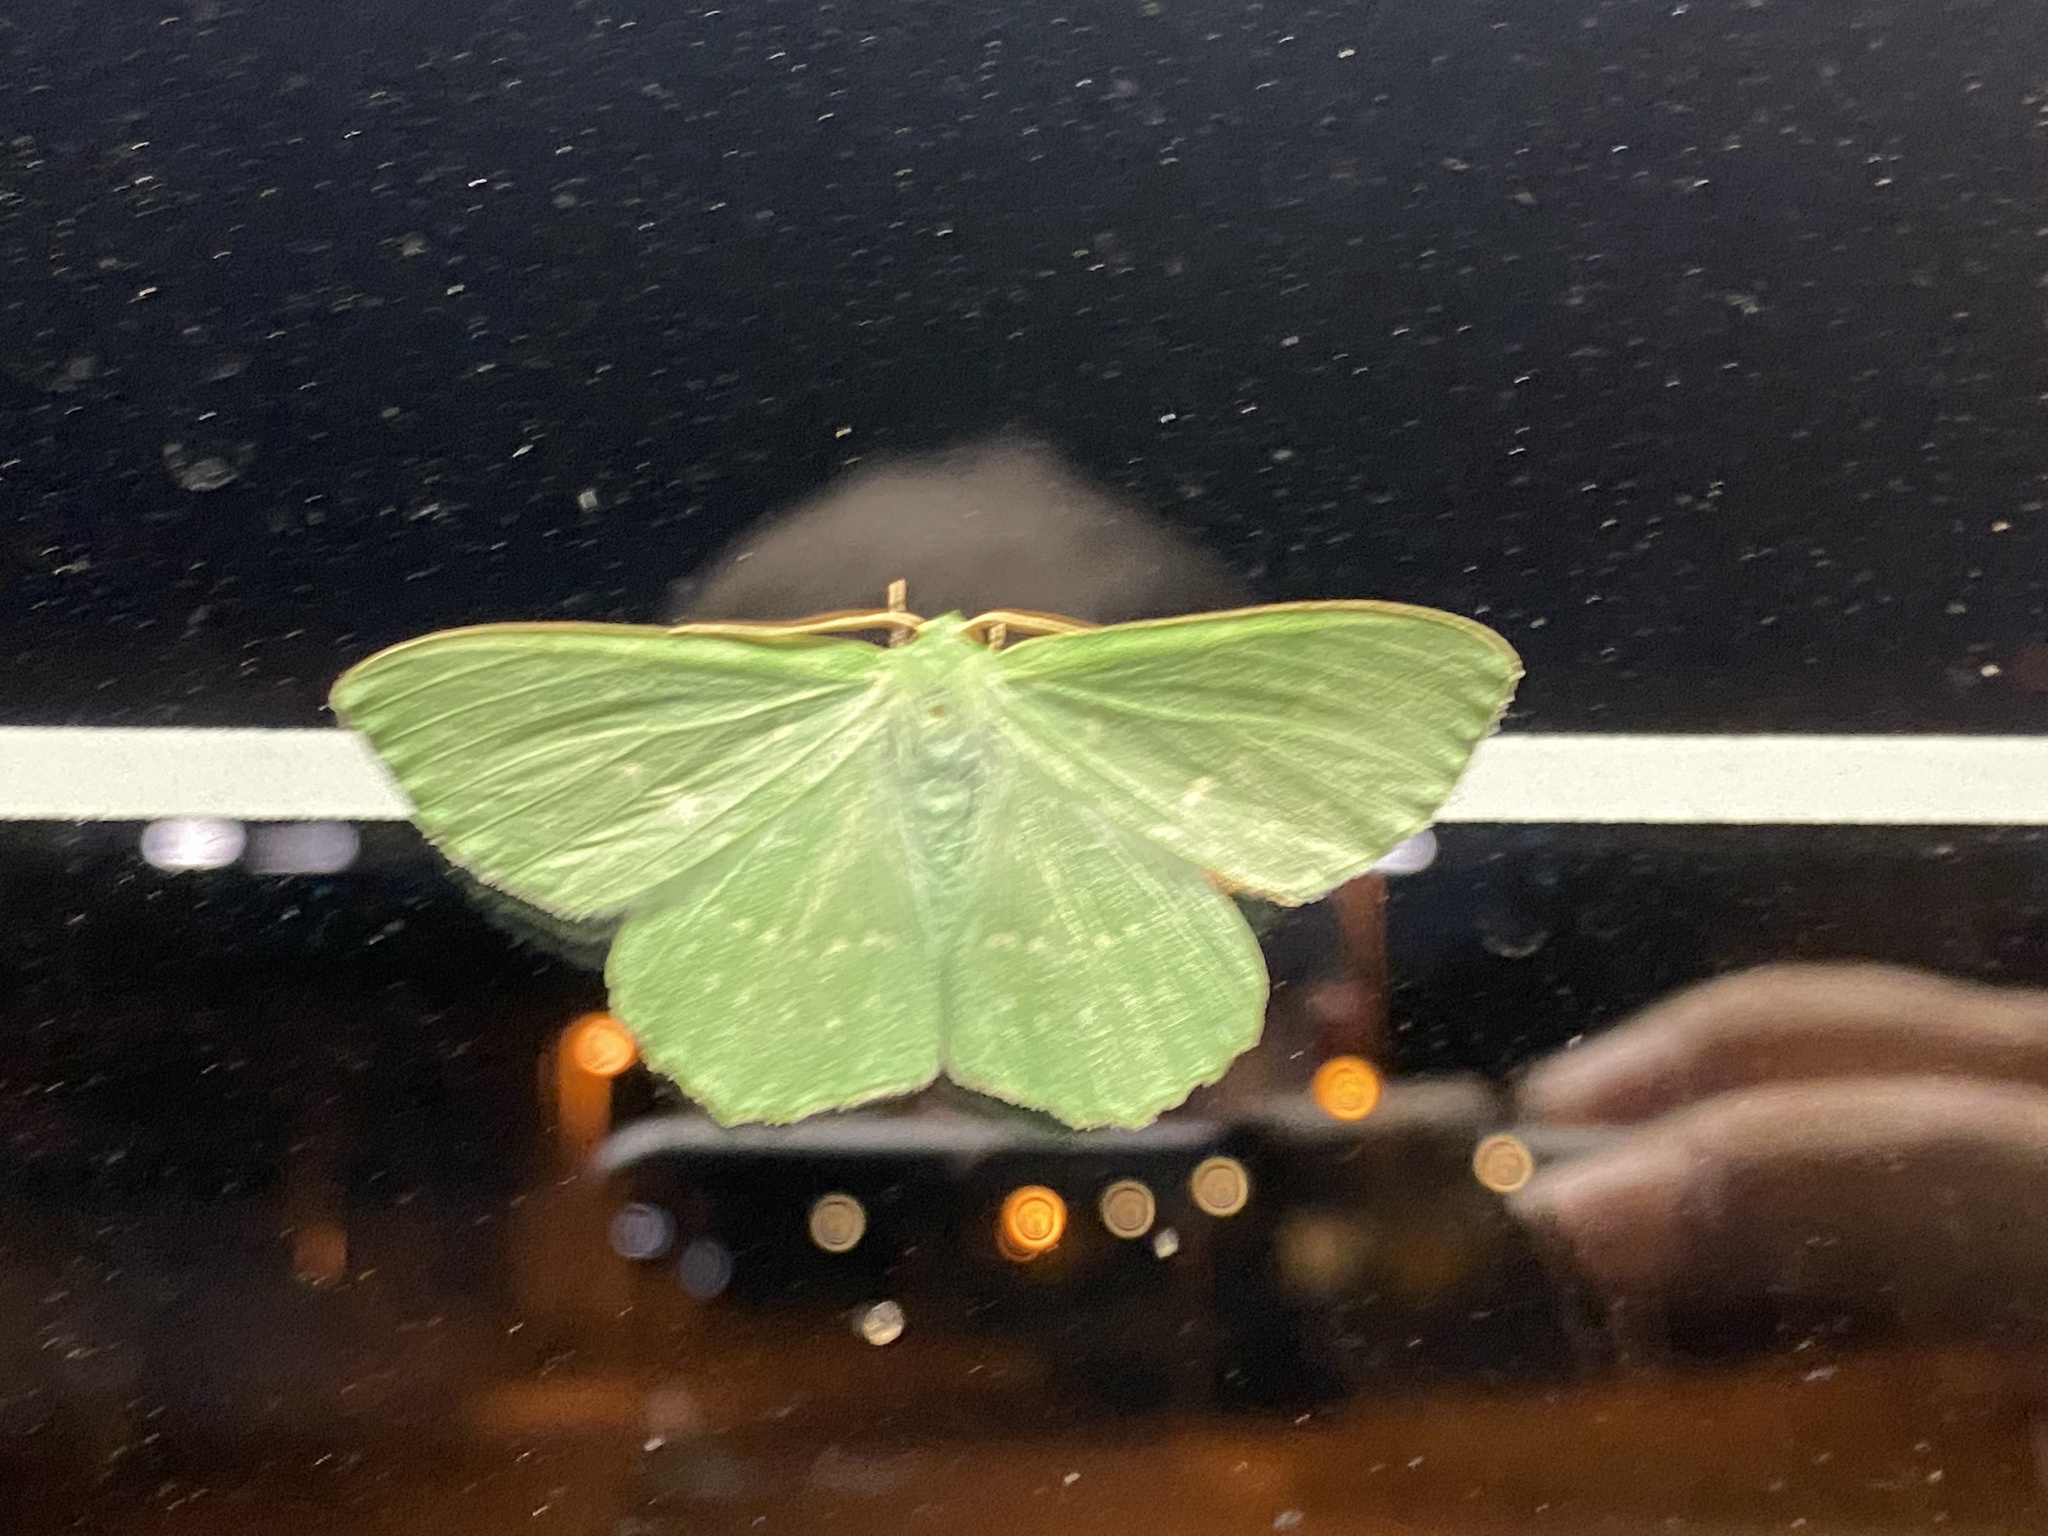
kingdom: Animalia
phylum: Arthropoda
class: Insecta
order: Lepidoptera
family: Geometridae
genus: Geometra
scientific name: Geometra papilionaria
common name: Large emerald
